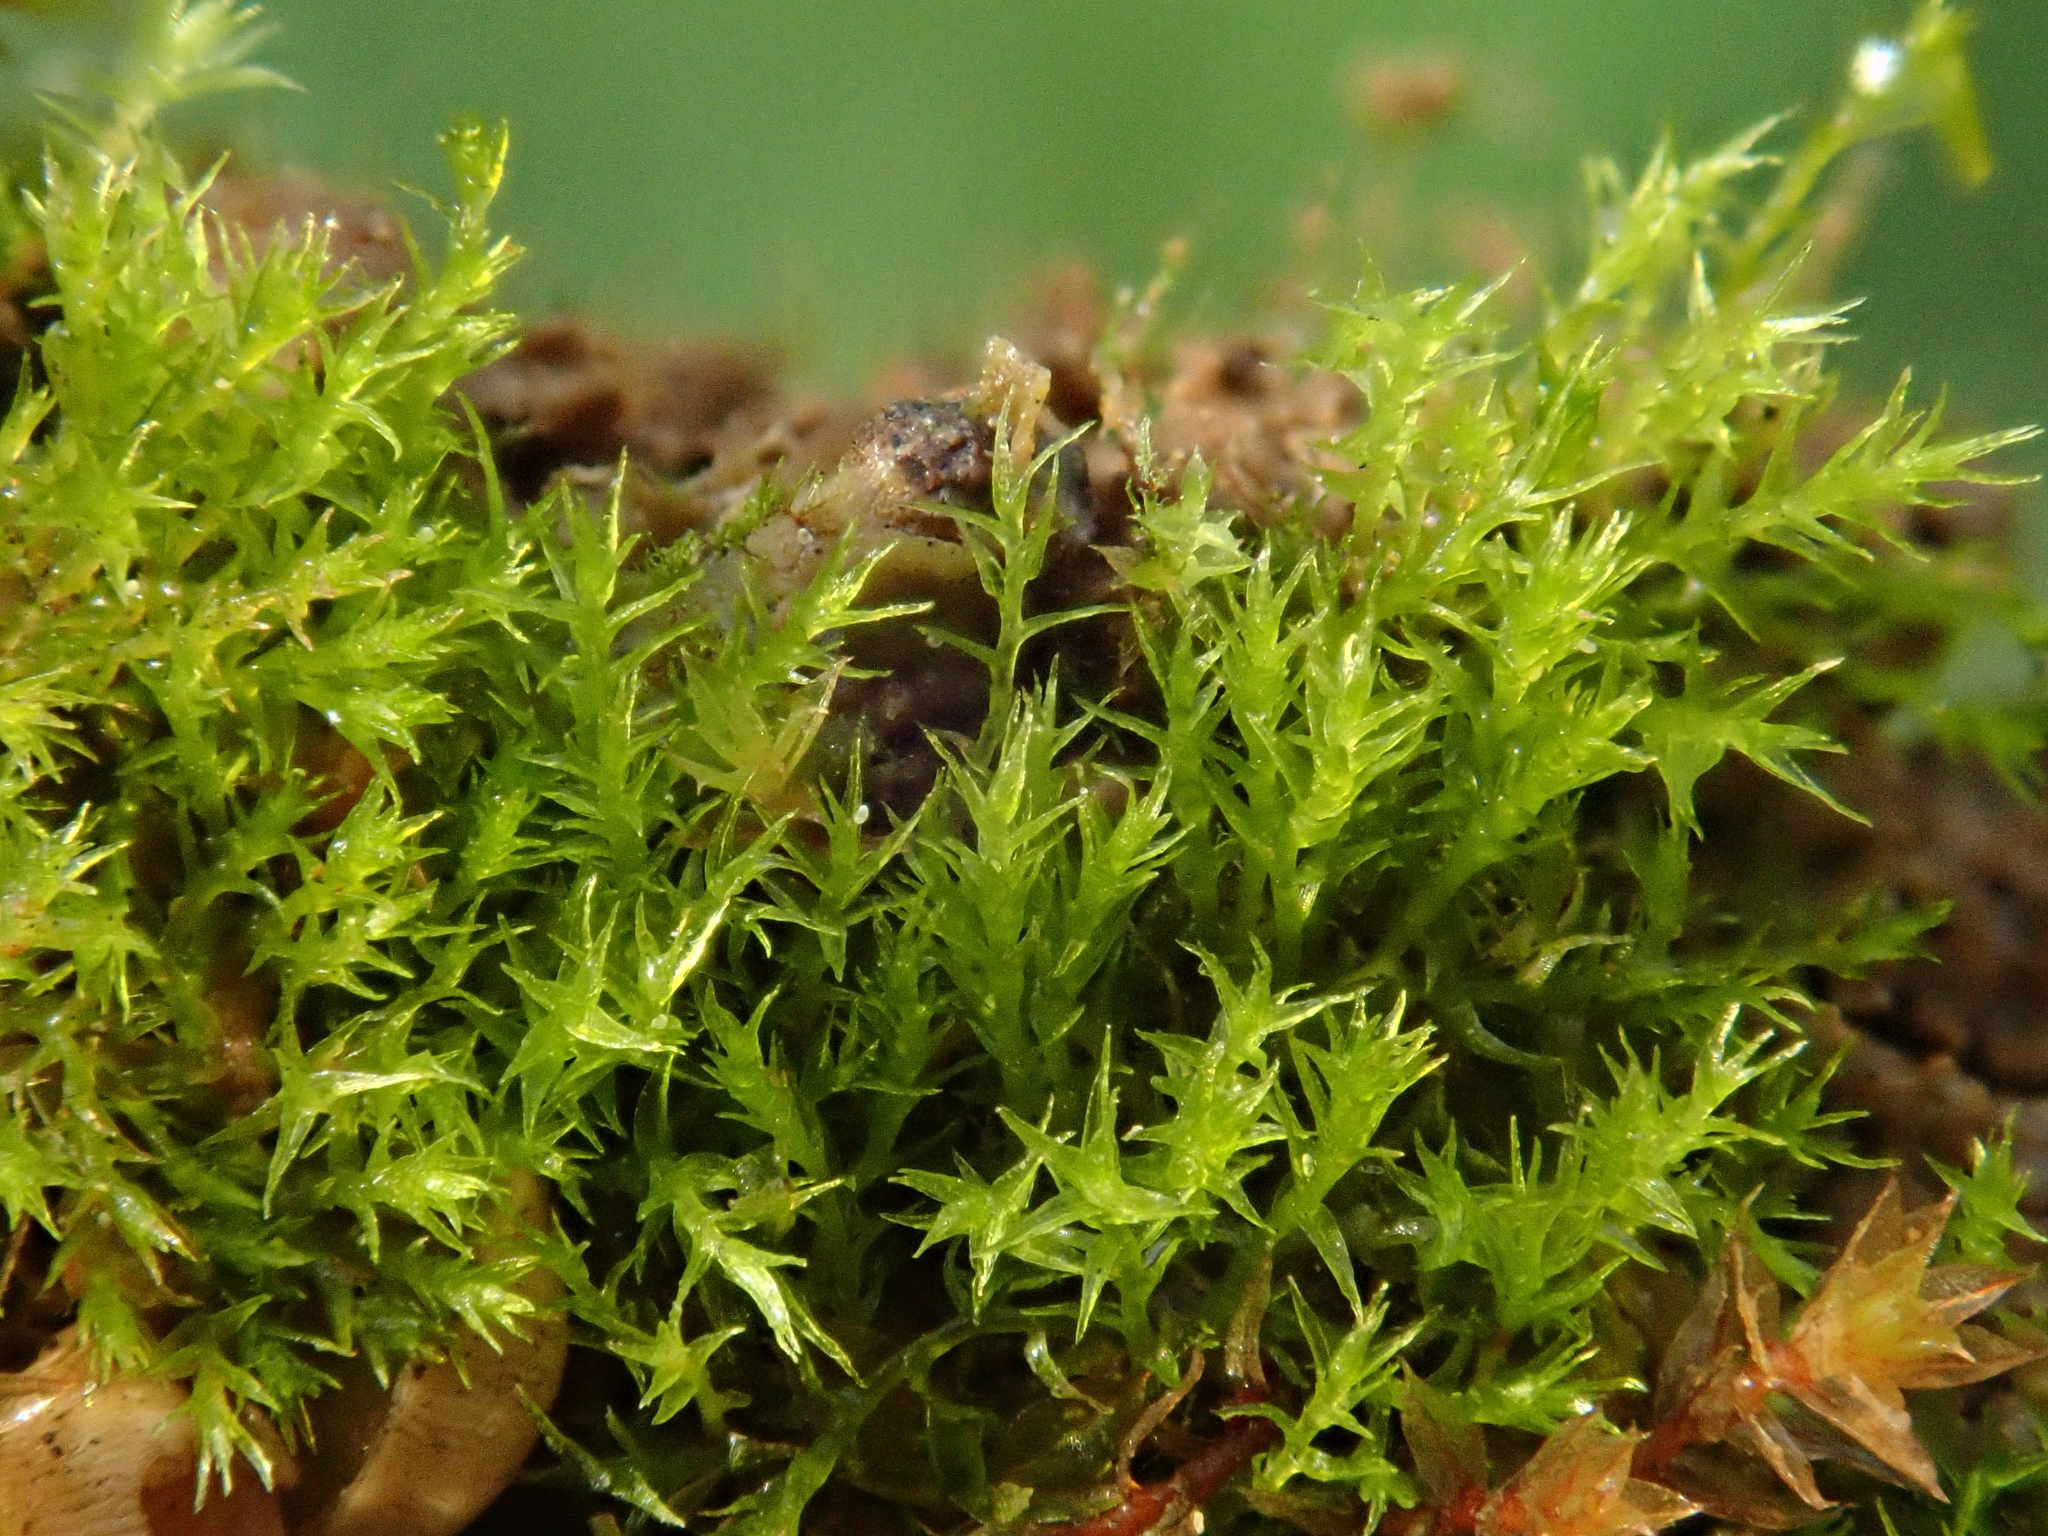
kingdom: Plantae
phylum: Bryophyta
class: Bryopsida
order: Dicranales
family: Dicranellaceae
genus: Dicranella
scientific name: Dicranella staphylina
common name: Field forklet moss
